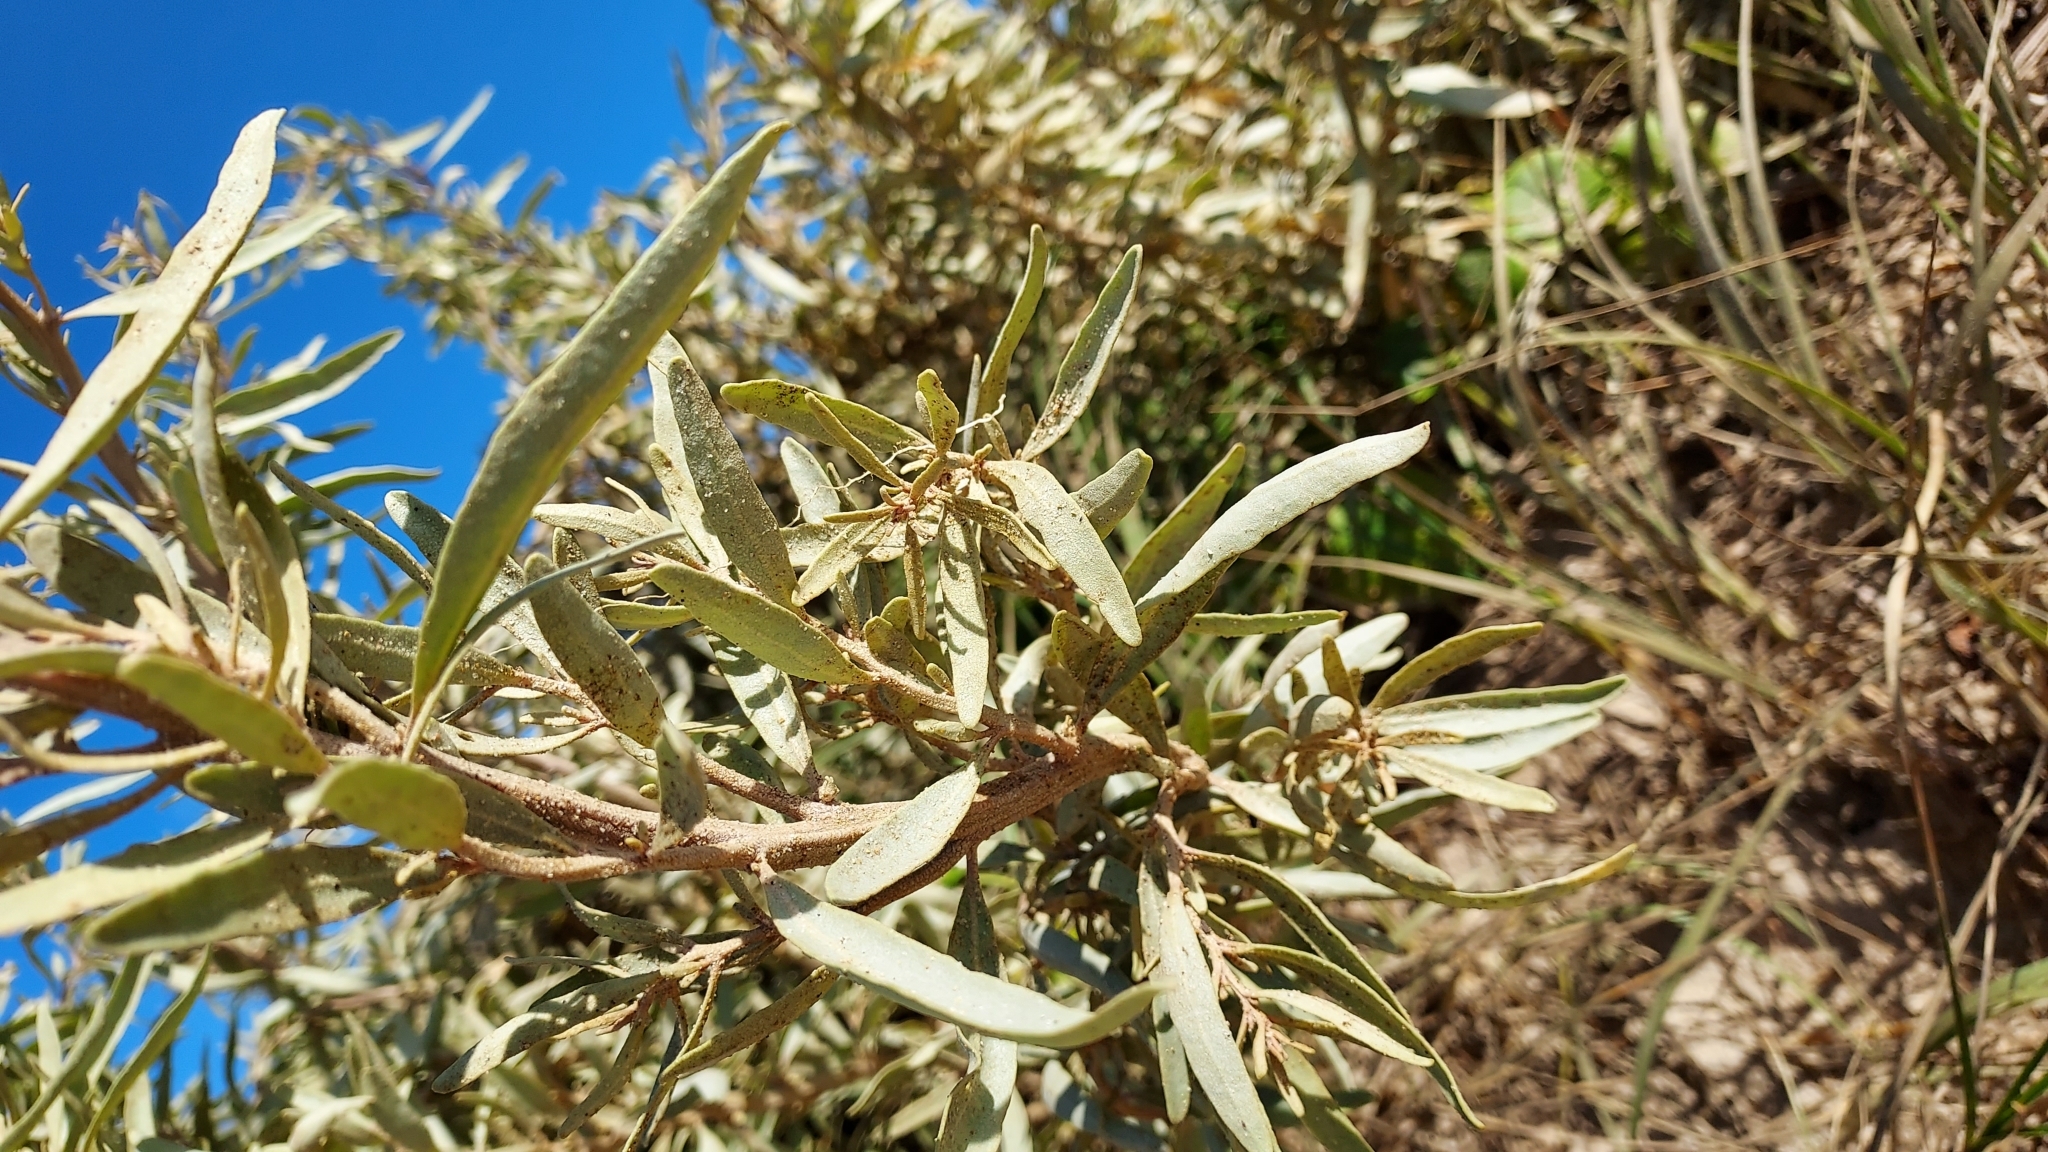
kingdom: Plantae
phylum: Tracheophyta
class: Magnoliopsida
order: Caryophyllales
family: Amaranthaceae
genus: Atriplex
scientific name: Atriplex cinerea
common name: Grey saltbush
